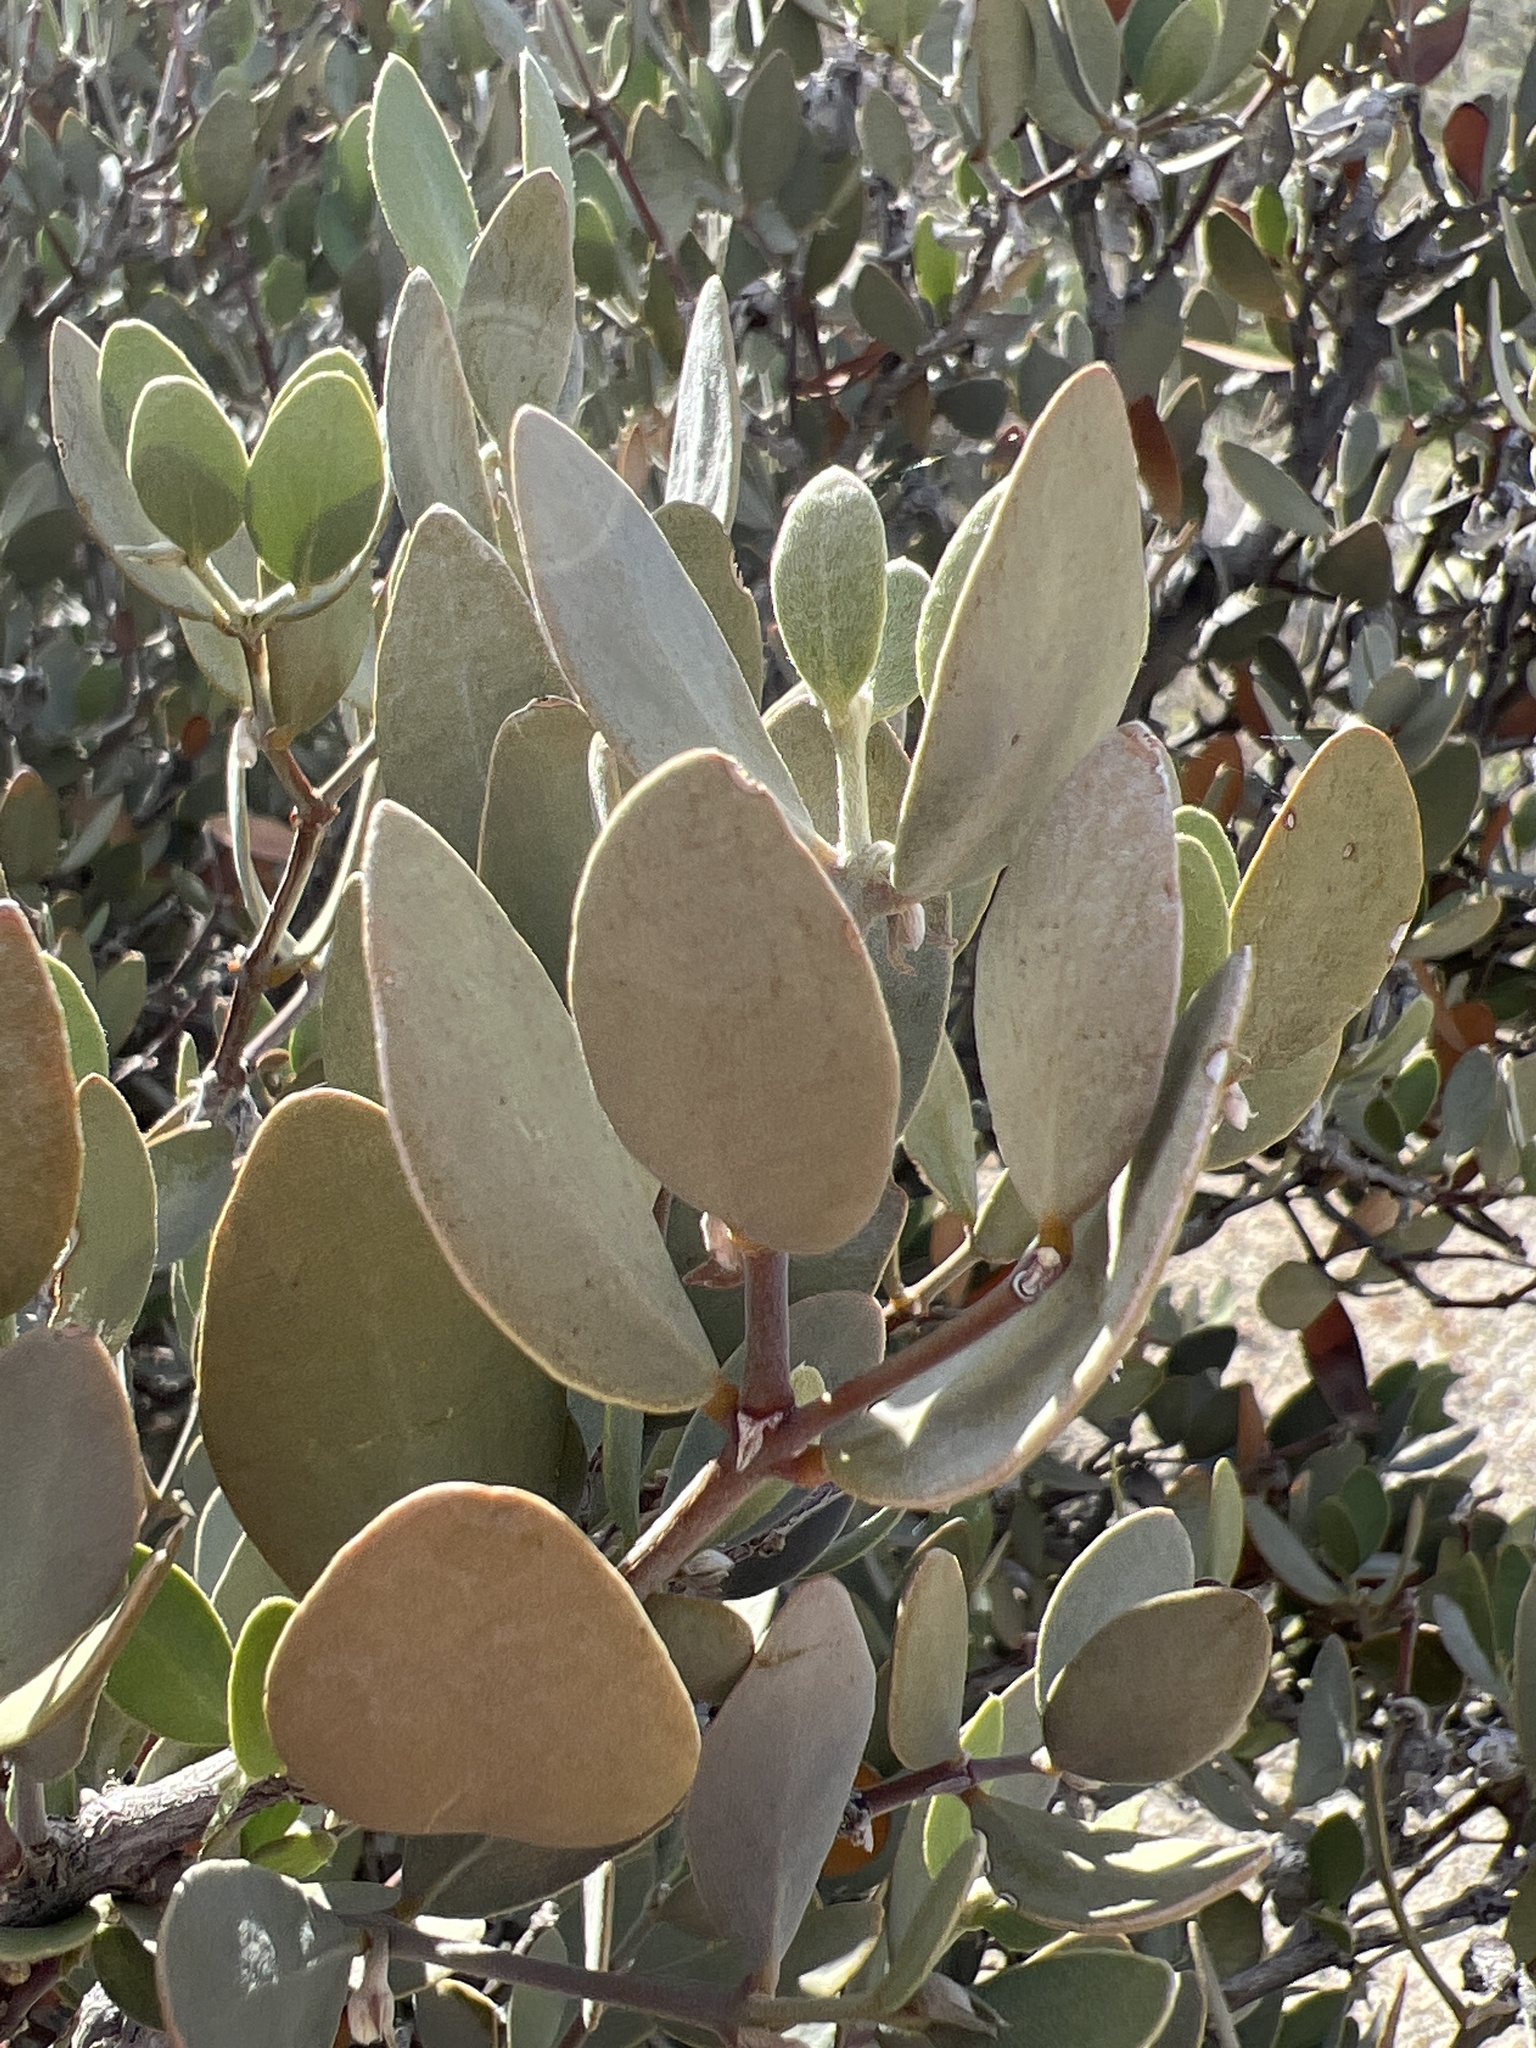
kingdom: Plantae
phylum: Tracheophyta
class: Magnoliopsida
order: Caryophyllales
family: Simmondsiaceae
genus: Simmondsia
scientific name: Simmondsia chinensis
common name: Jojoba
